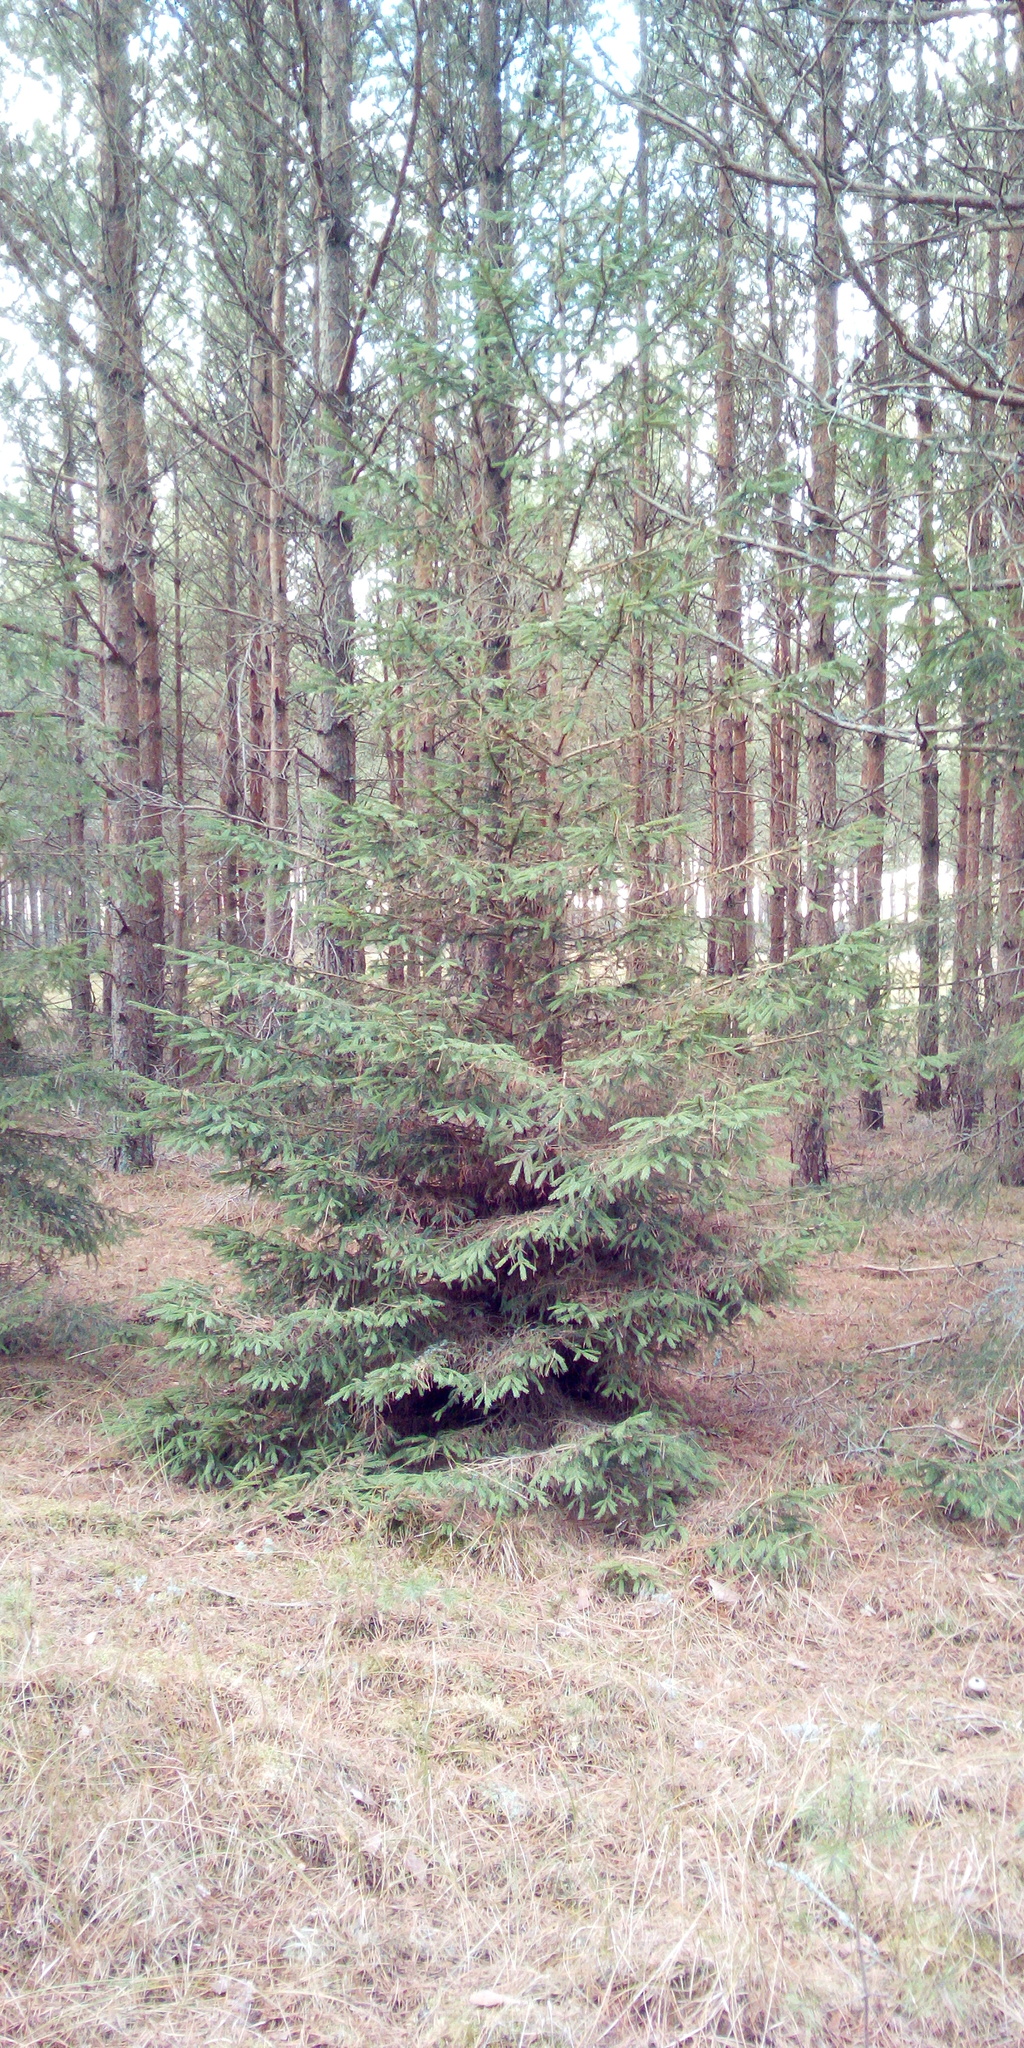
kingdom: Plantae
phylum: Tracheophyta
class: Pinopsida
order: Pinales
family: Pinaceae
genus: Picea
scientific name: Picea abies
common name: Norway spruce
